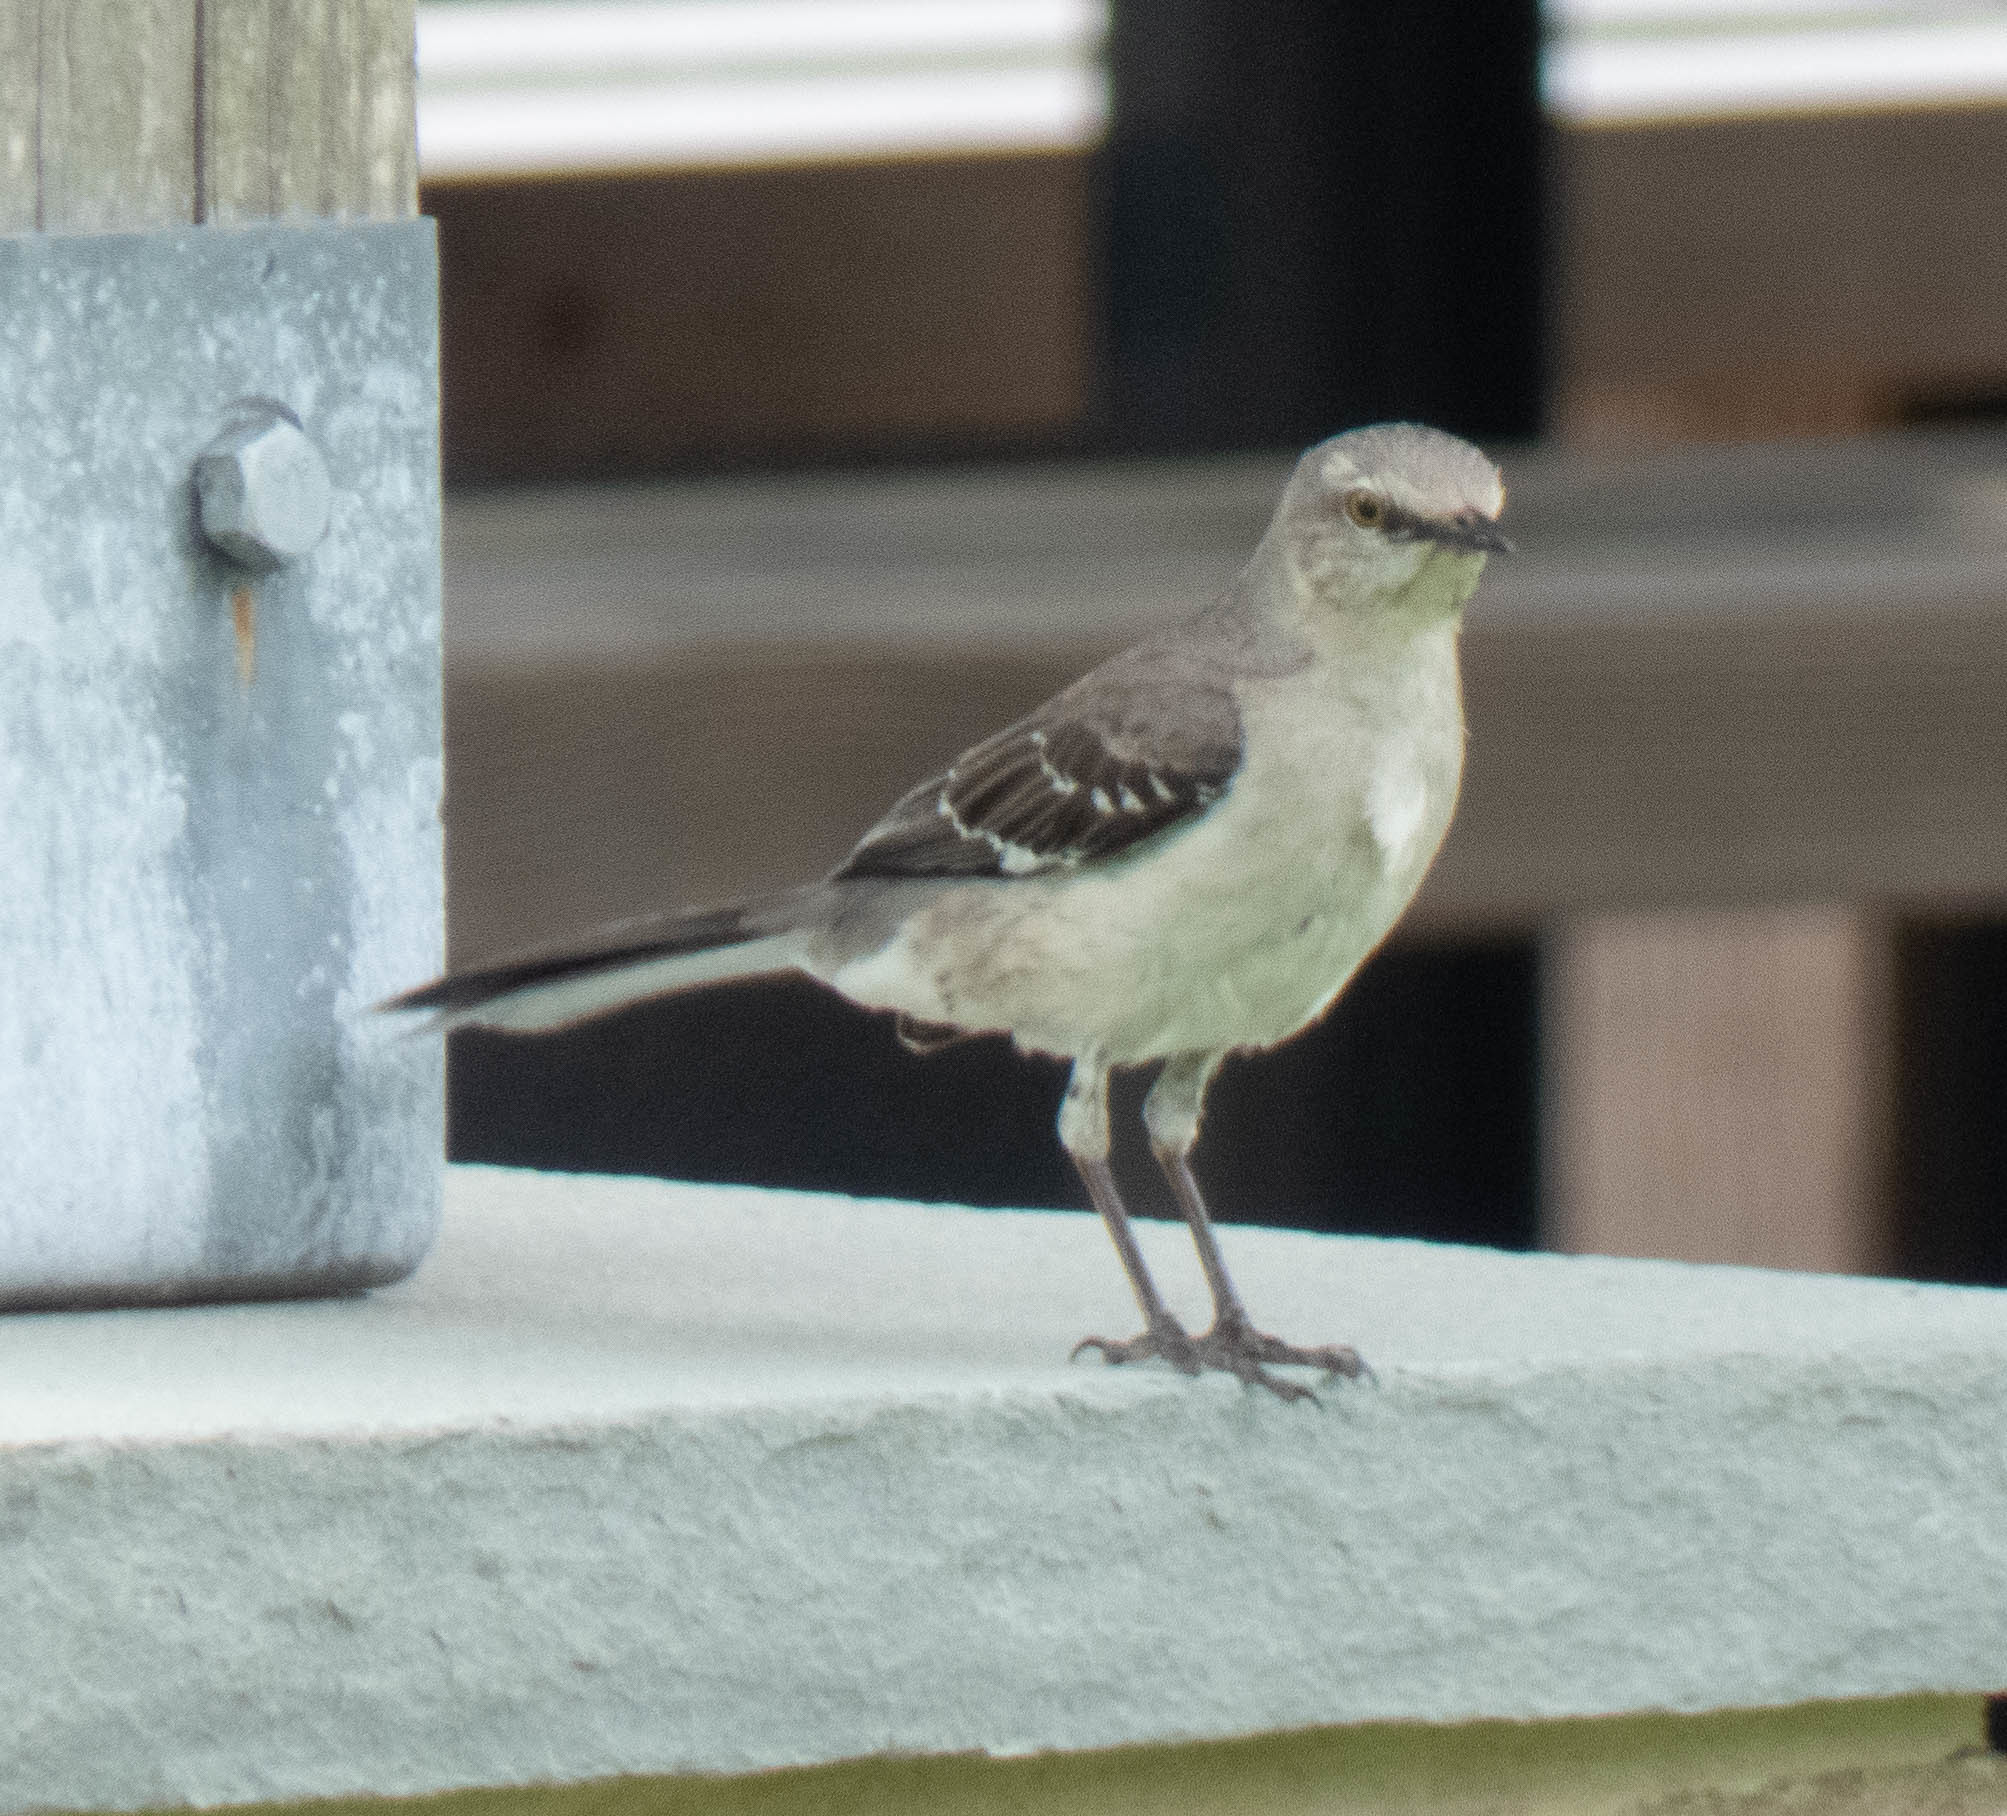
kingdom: Animalia
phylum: Chordata
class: Aves
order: Passeriformes
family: Mimidae
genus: Mimus
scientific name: Mimus polyglottos
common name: Northern mockingbird
